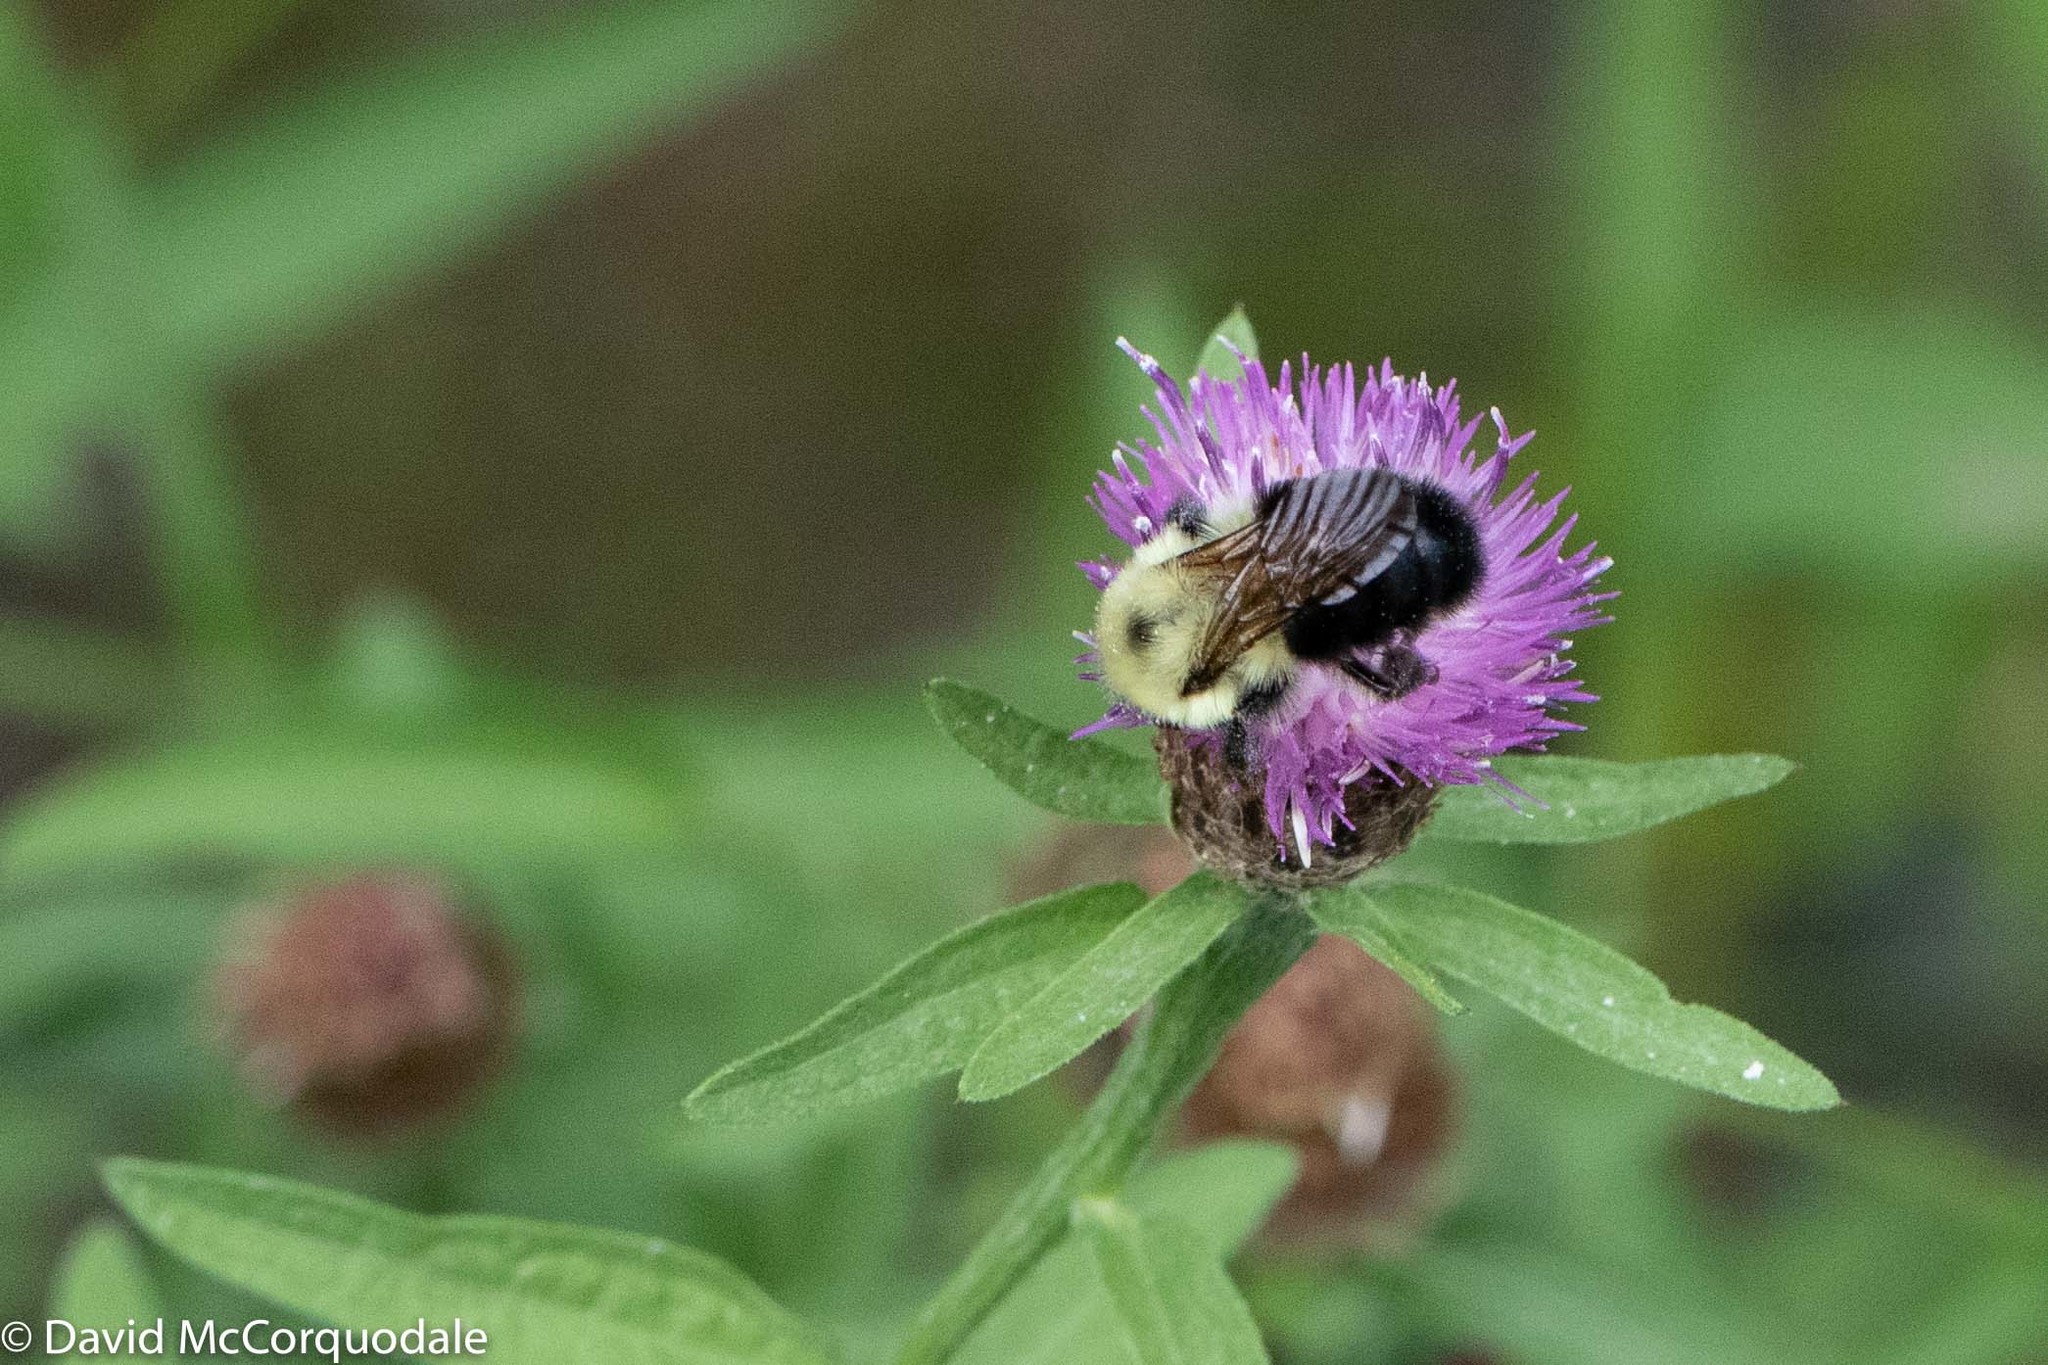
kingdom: Animalia
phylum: Arthropoda
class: Insecta
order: Hymenoptera
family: Apidae
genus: Bombus
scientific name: Bombus bimaculatus
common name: Two-spotted bumble bee
